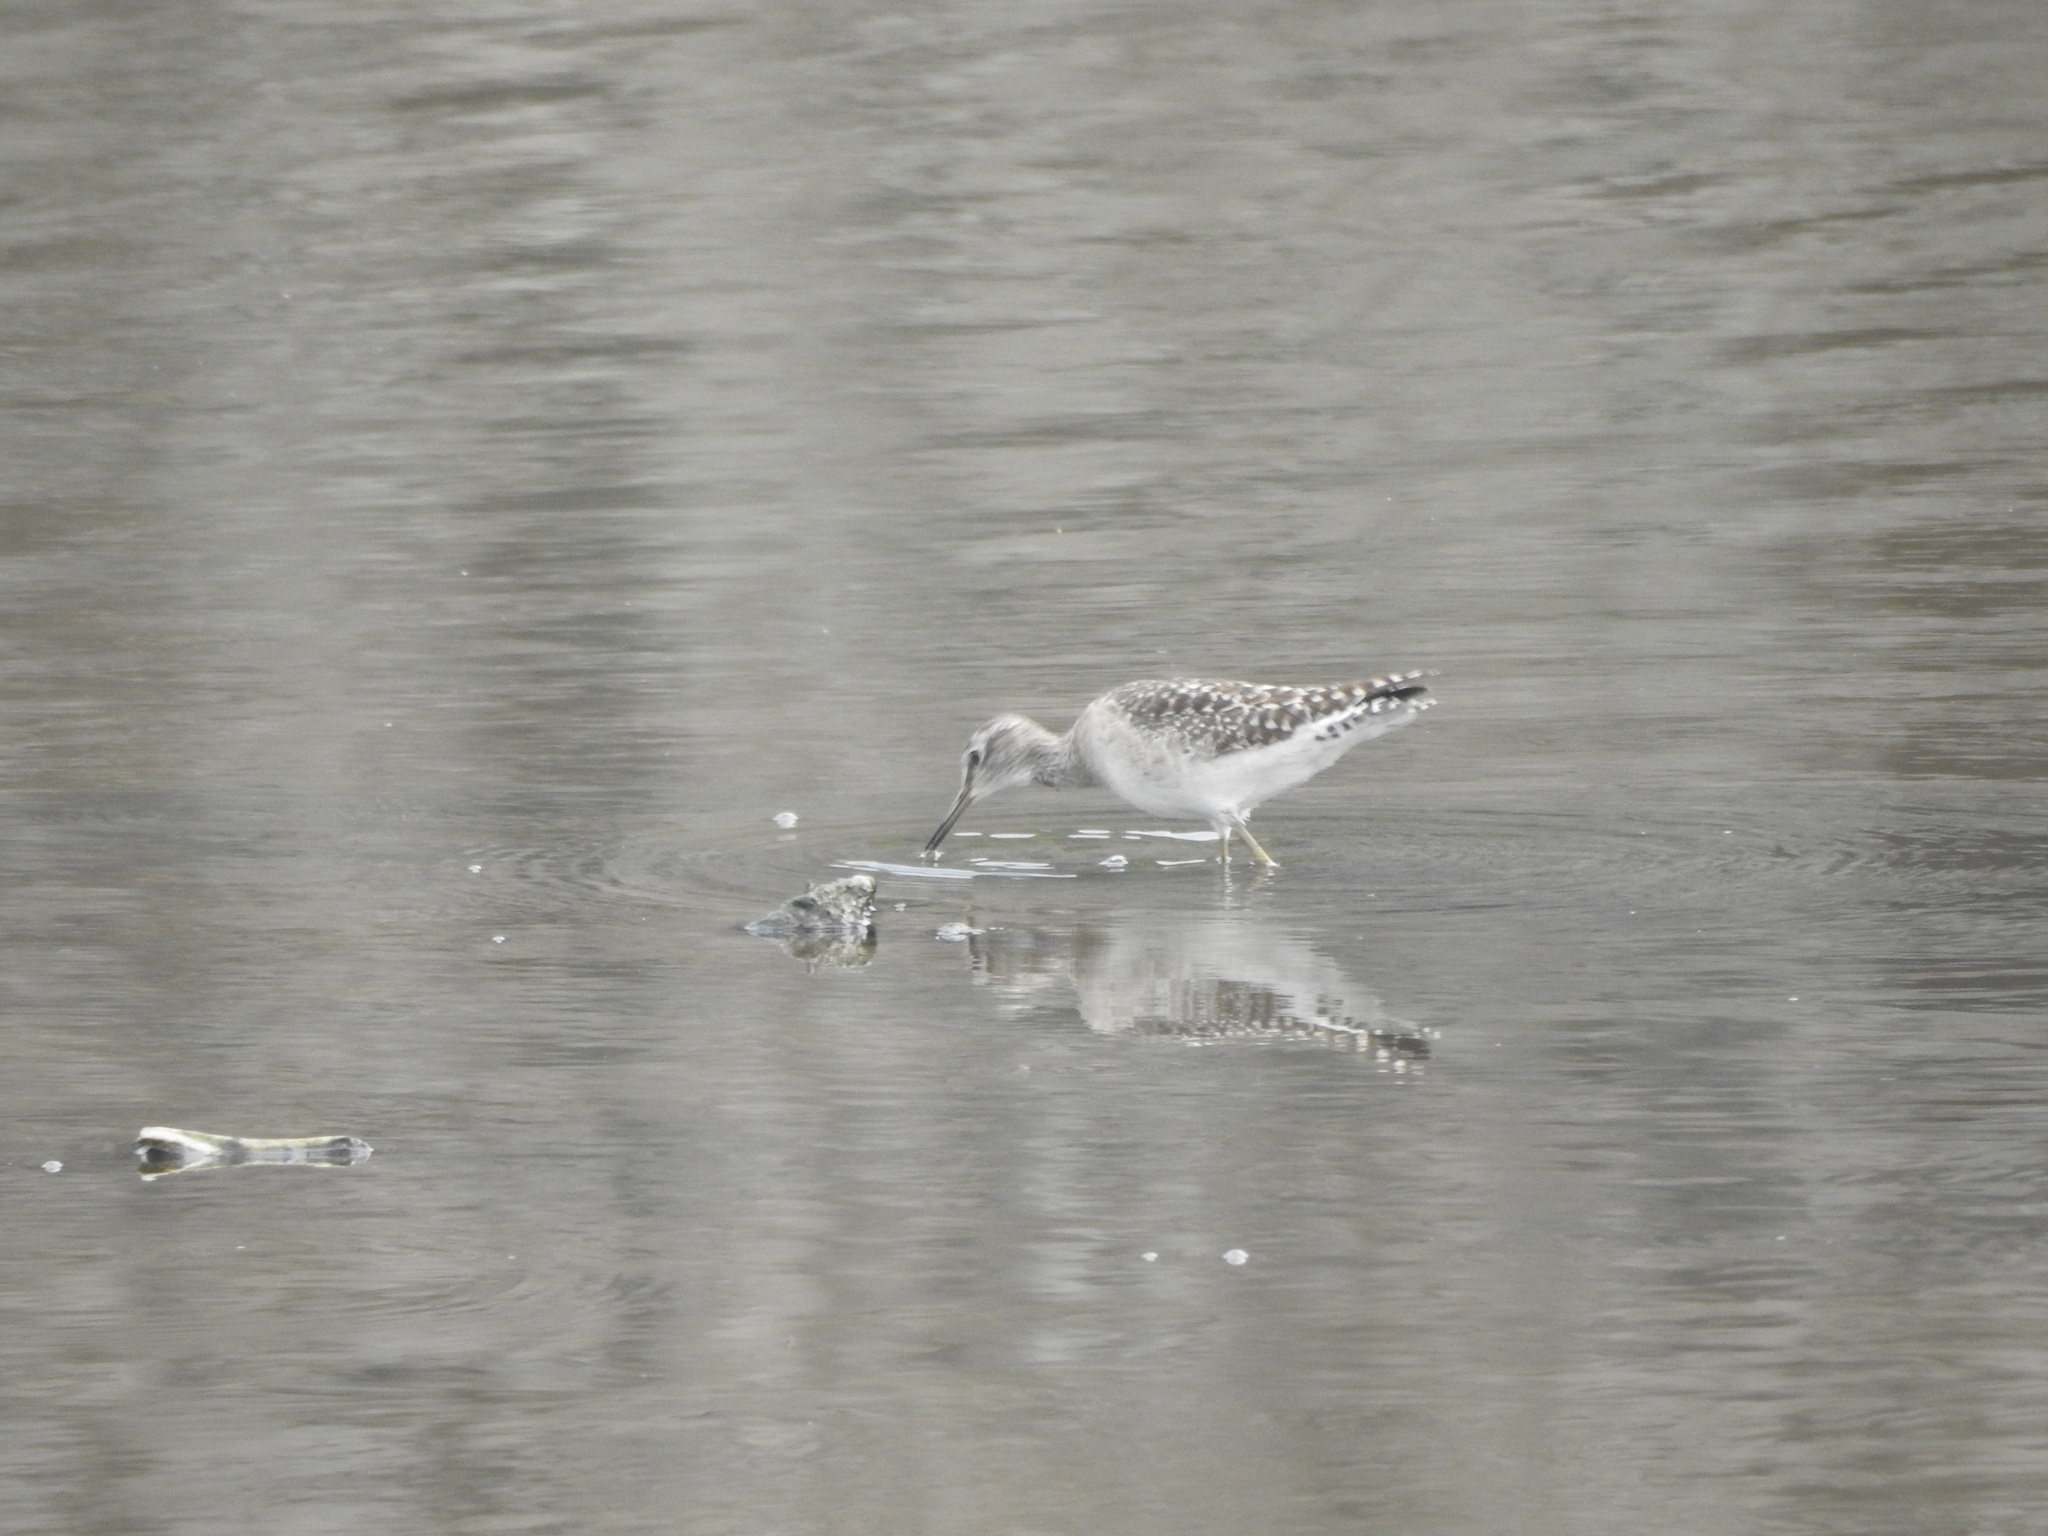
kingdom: Animalia
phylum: Chordata
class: Aves
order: Charadriiformes
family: Scolopacidae
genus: Tringa
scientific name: Tringa glareola
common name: Wood sandpiper
